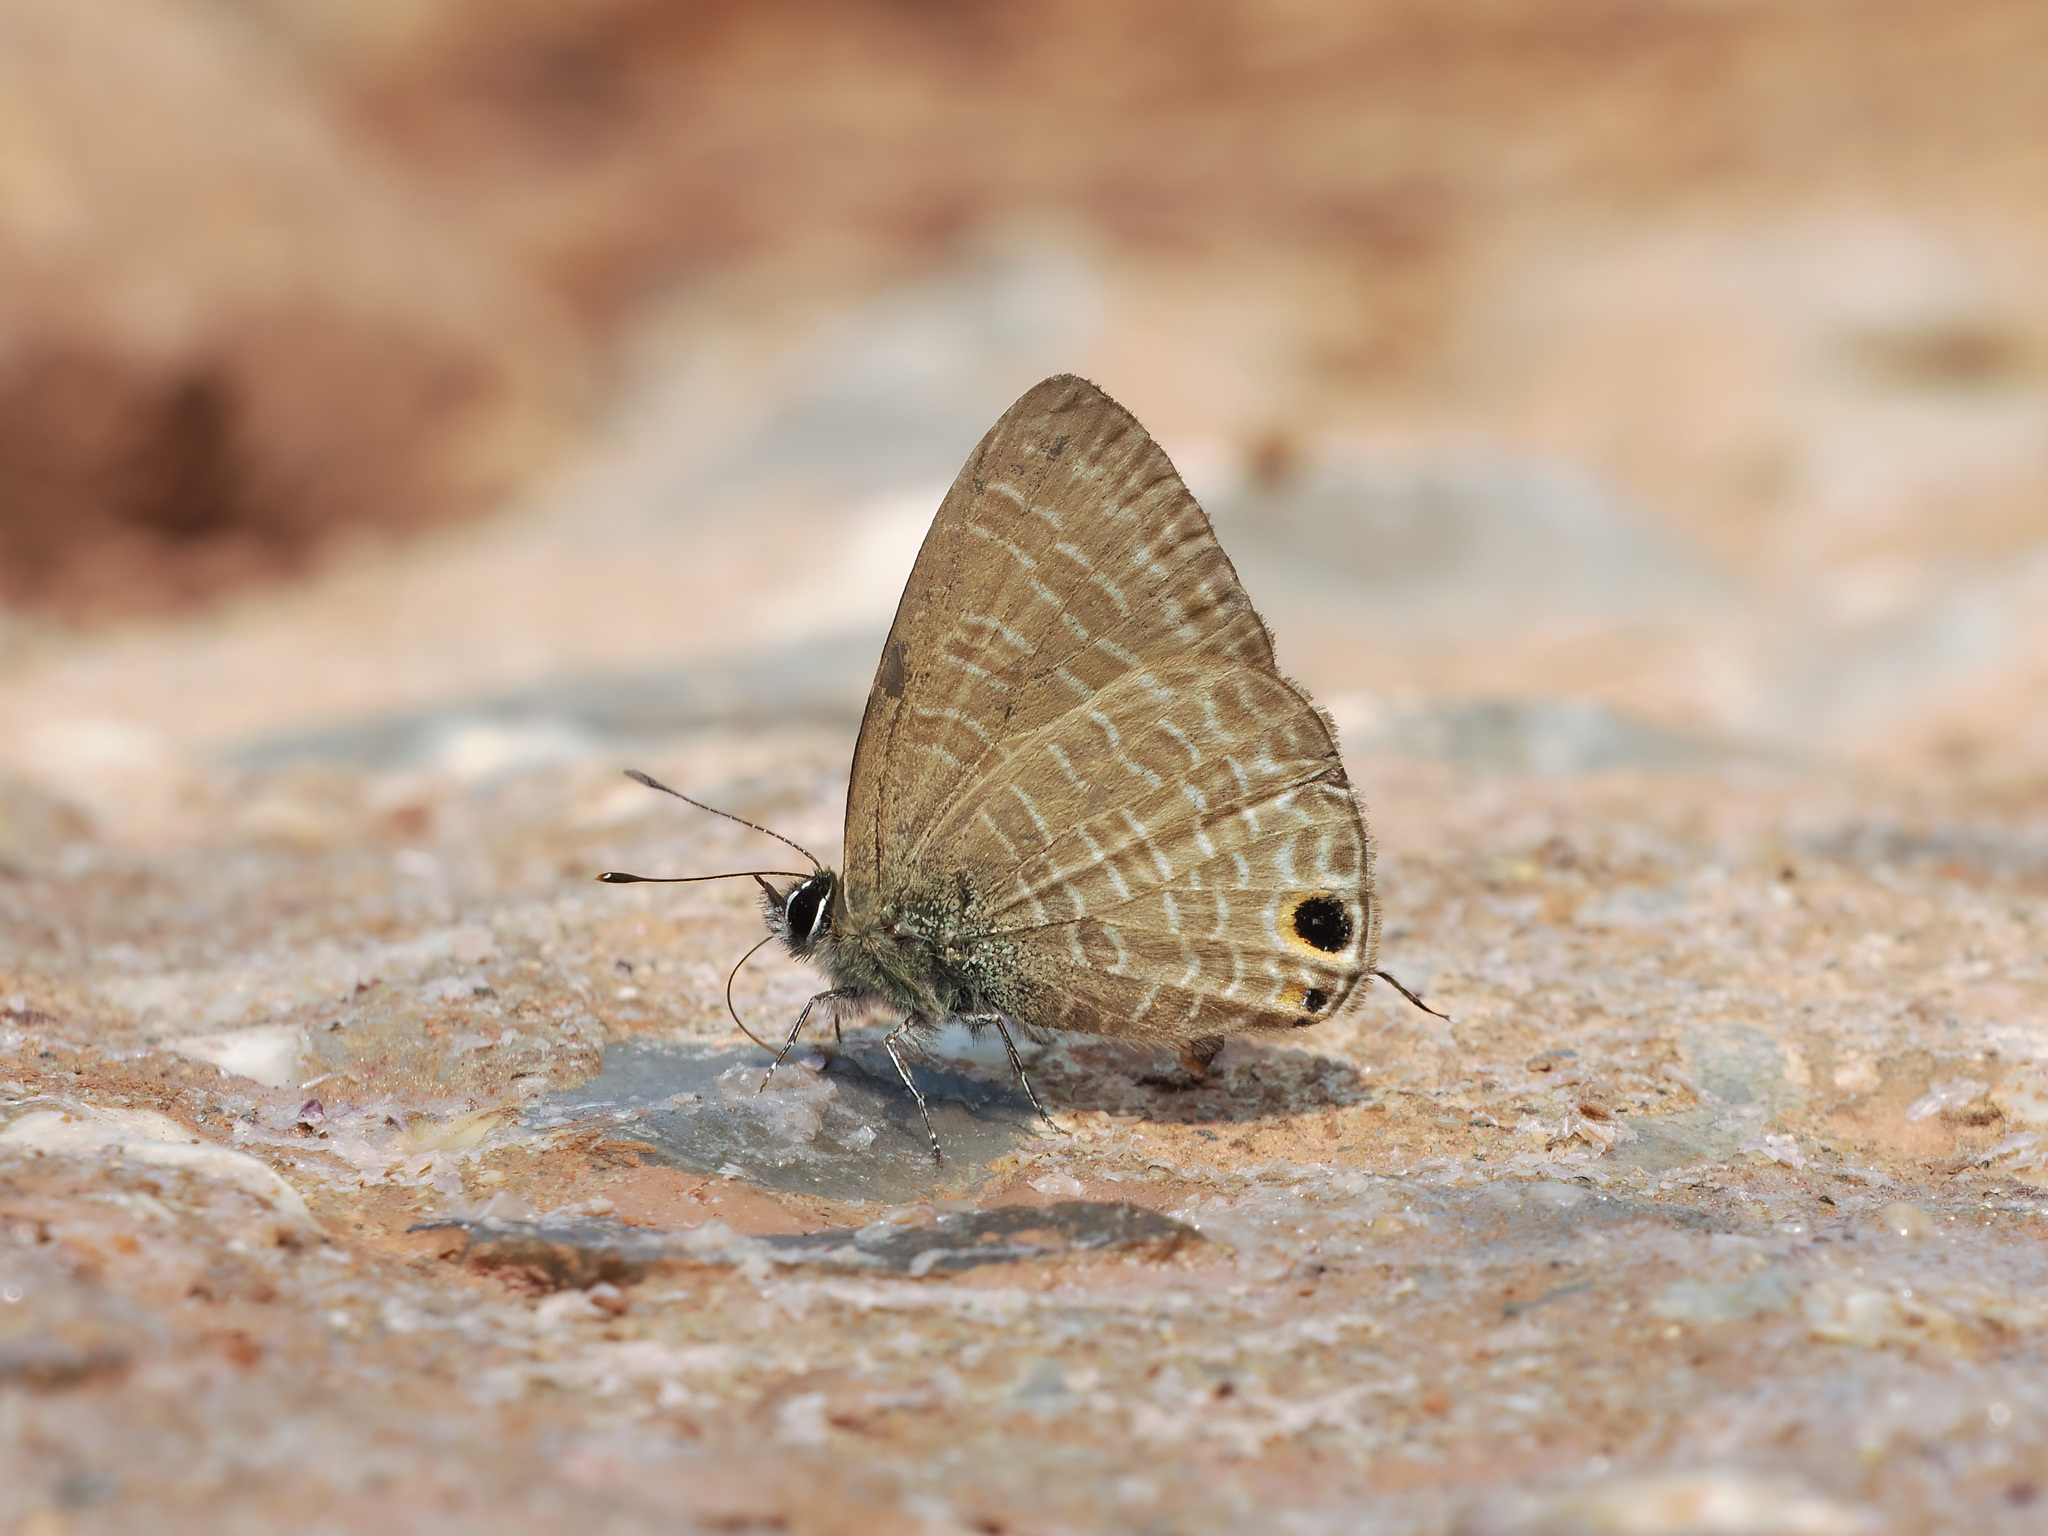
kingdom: Animalia
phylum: Arthropoda
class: Insecta
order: Lepidoptera
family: Lycaenidae
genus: Nacaduba
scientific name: Nacaduba beroe
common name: Opaque sixline blue
